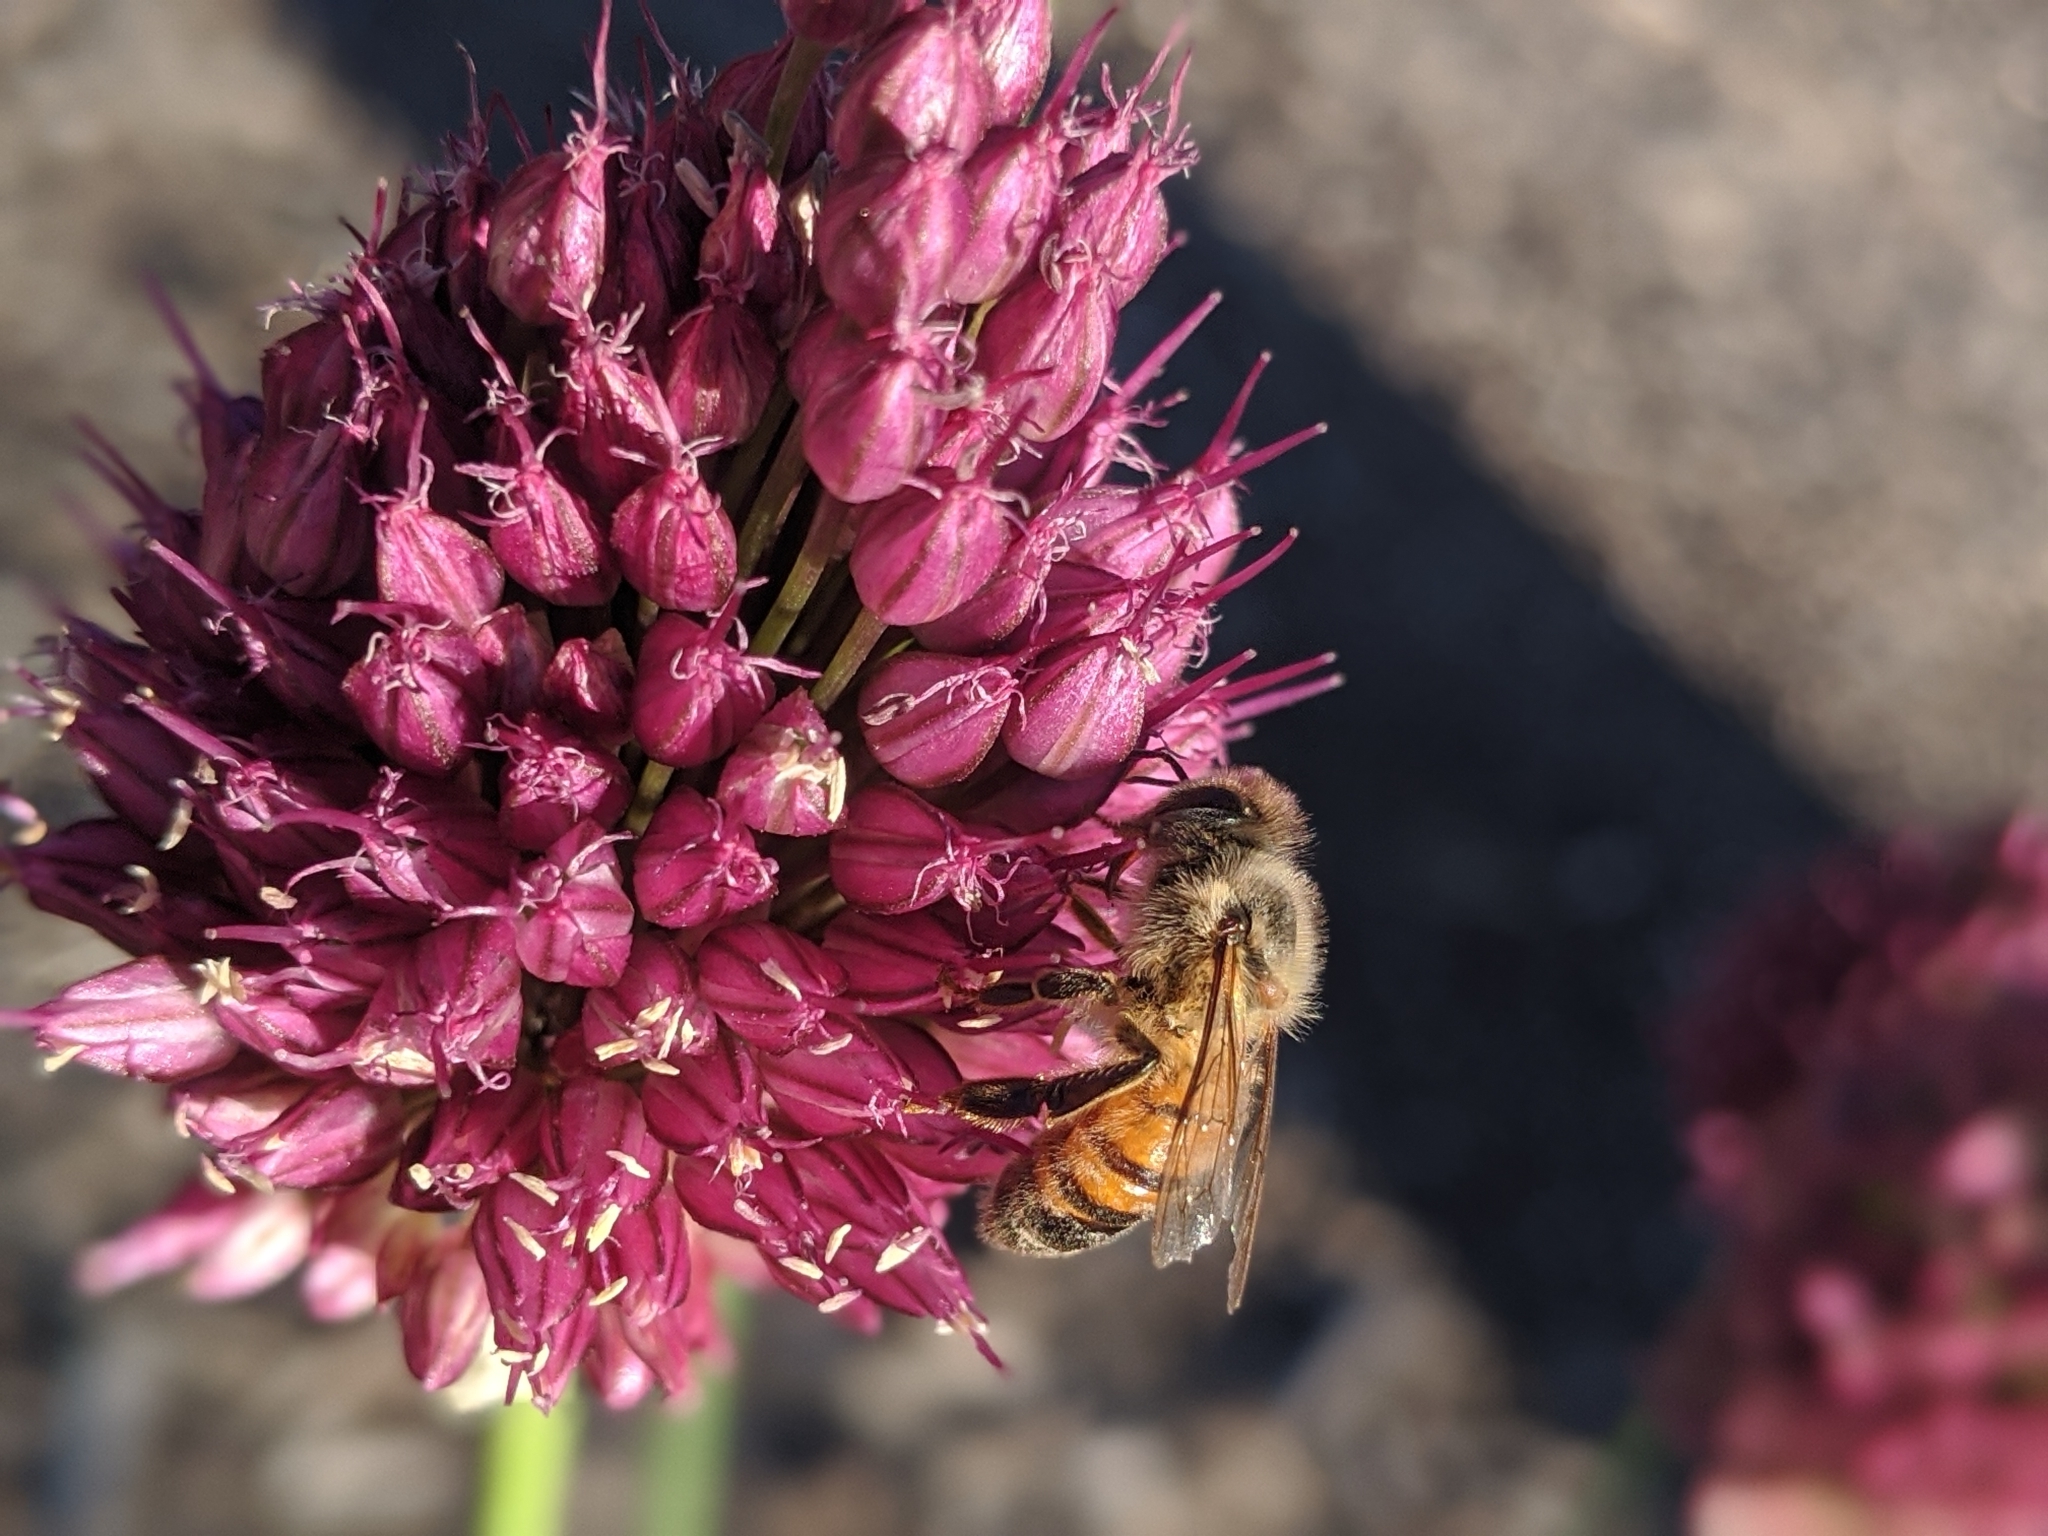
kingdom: Animalia
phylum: Arthropoda
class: Insecta
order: Hymenoptera
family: Apidae
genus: Apis
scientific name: Apis mellifera
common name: Honey bee
